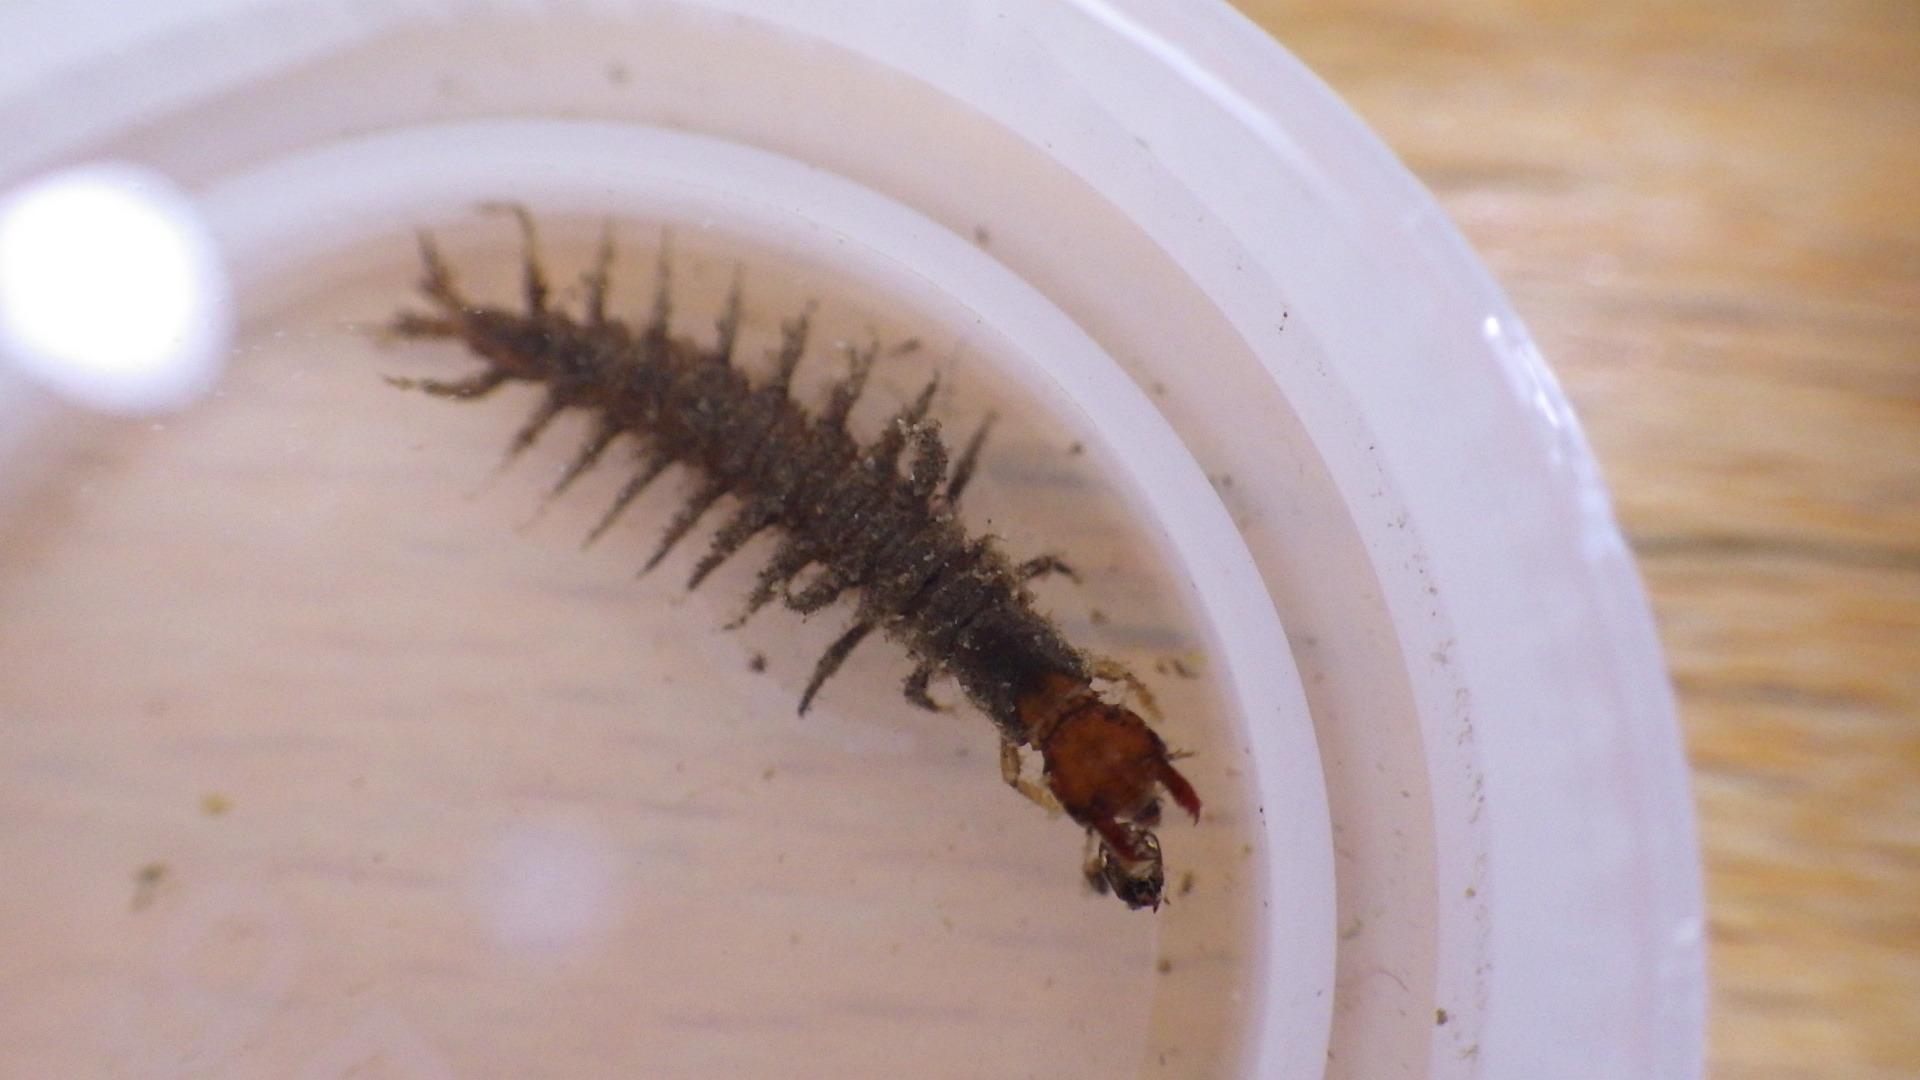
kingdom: Animalia
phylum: Arthropoda
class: Insecta
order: Megaloptera
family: Corydalidae
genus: Corydalus
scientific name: Corydalus cornutus
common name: Dobsonfly
